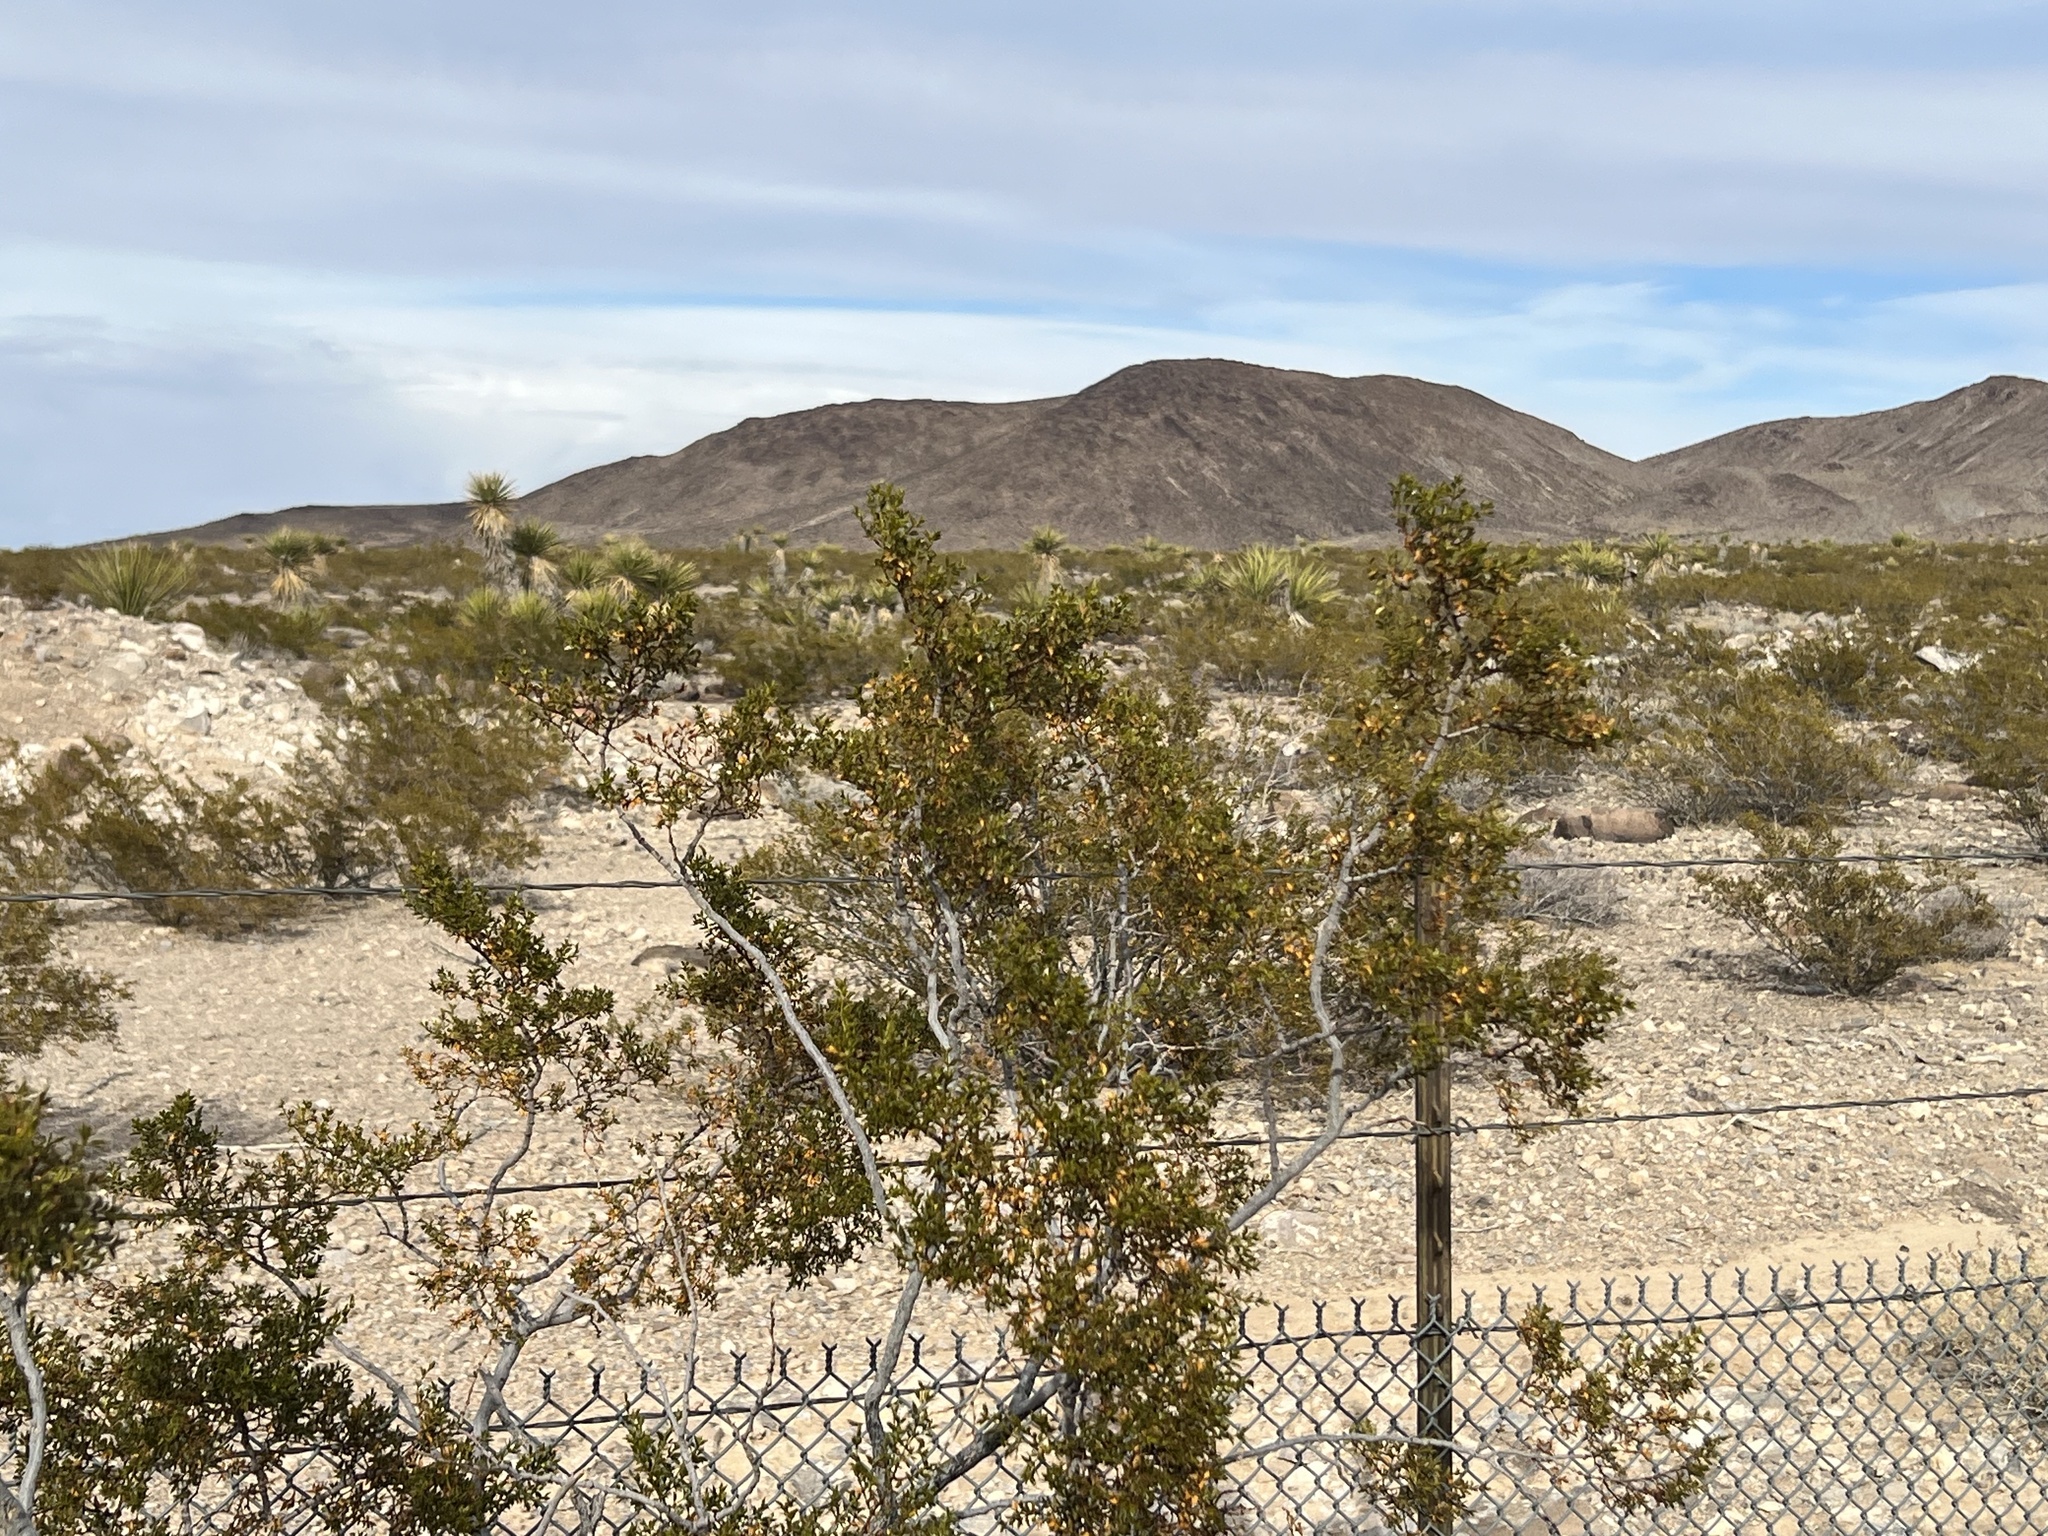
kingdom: Plantae
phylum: Tracheophyta
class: Magnoliopsida
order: Zygophyllales
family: Zygophyllaceae
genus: Larrea
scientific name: Larrea tridentata
